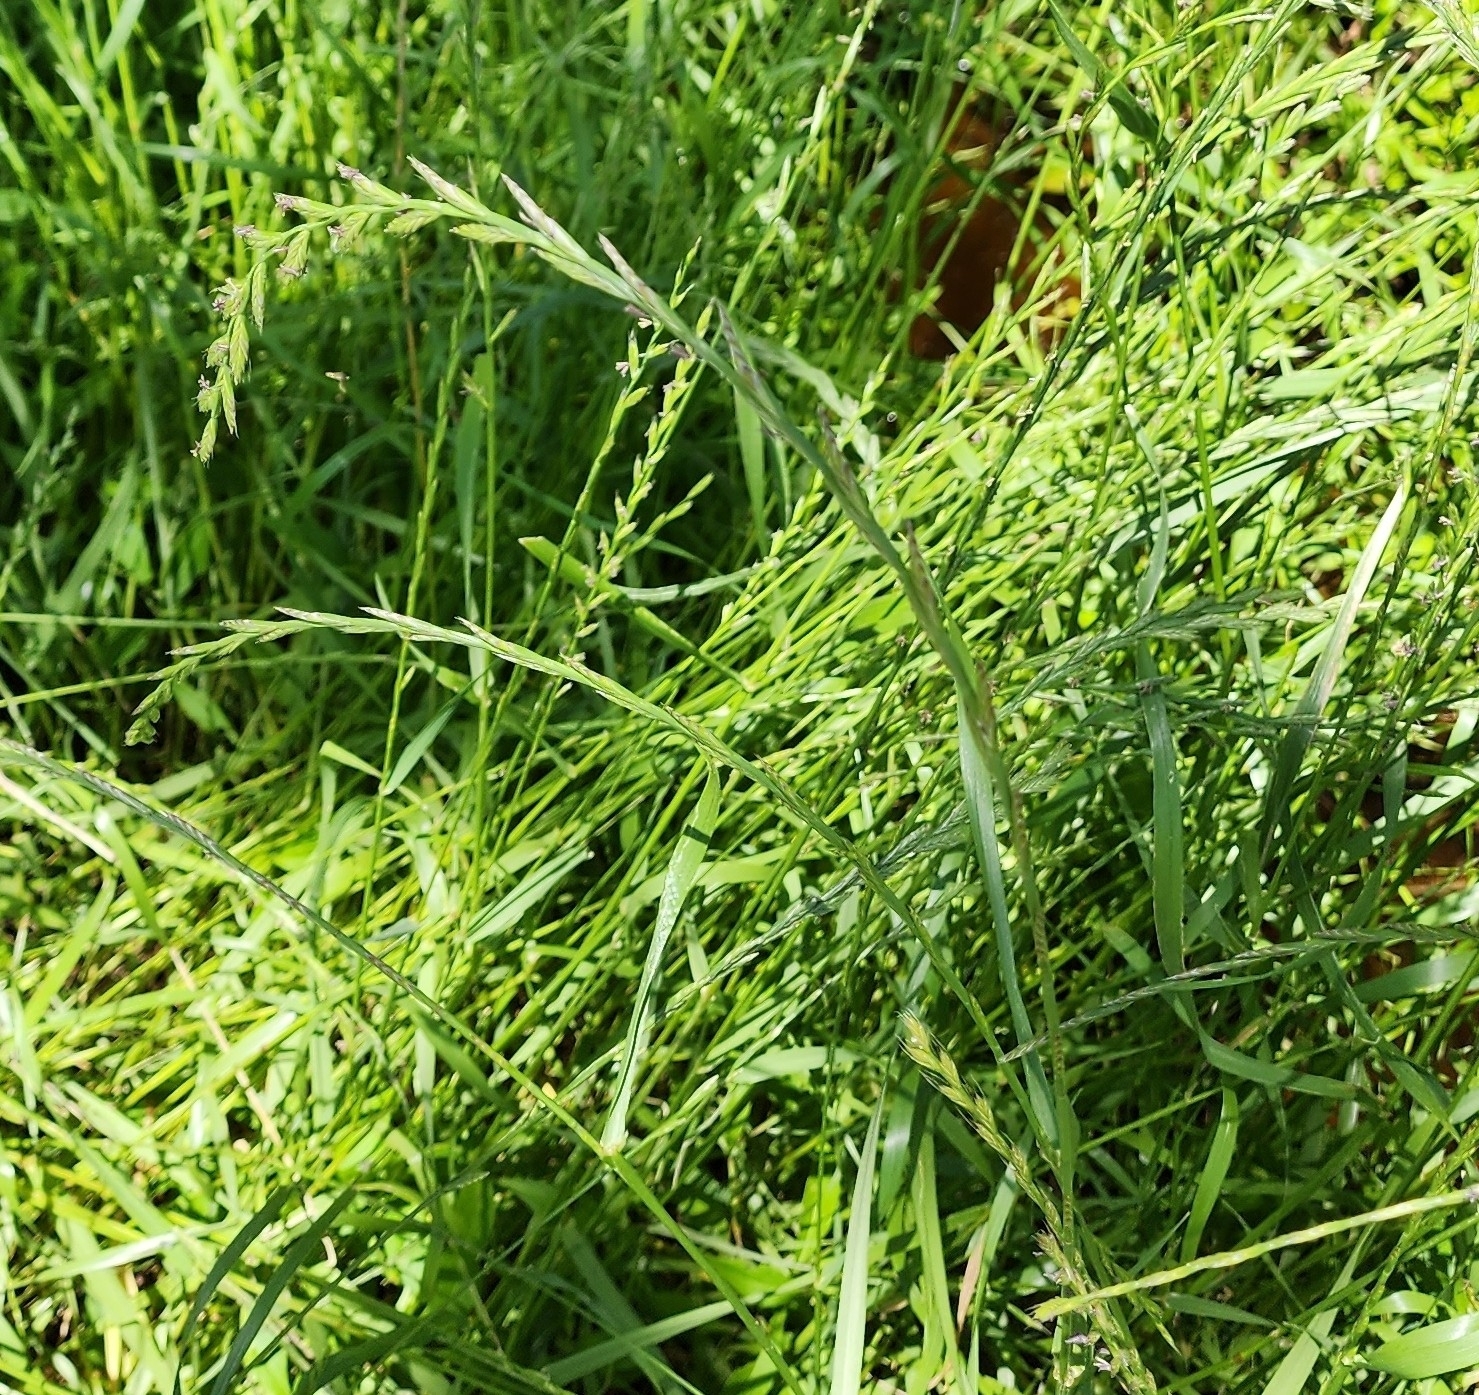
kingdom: Plantae
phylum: Tracheophyta
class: Liliopsida
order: Poales
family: Poaceae
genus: Lolium
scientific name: Lolium perenne
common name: Perennial ryegrass
